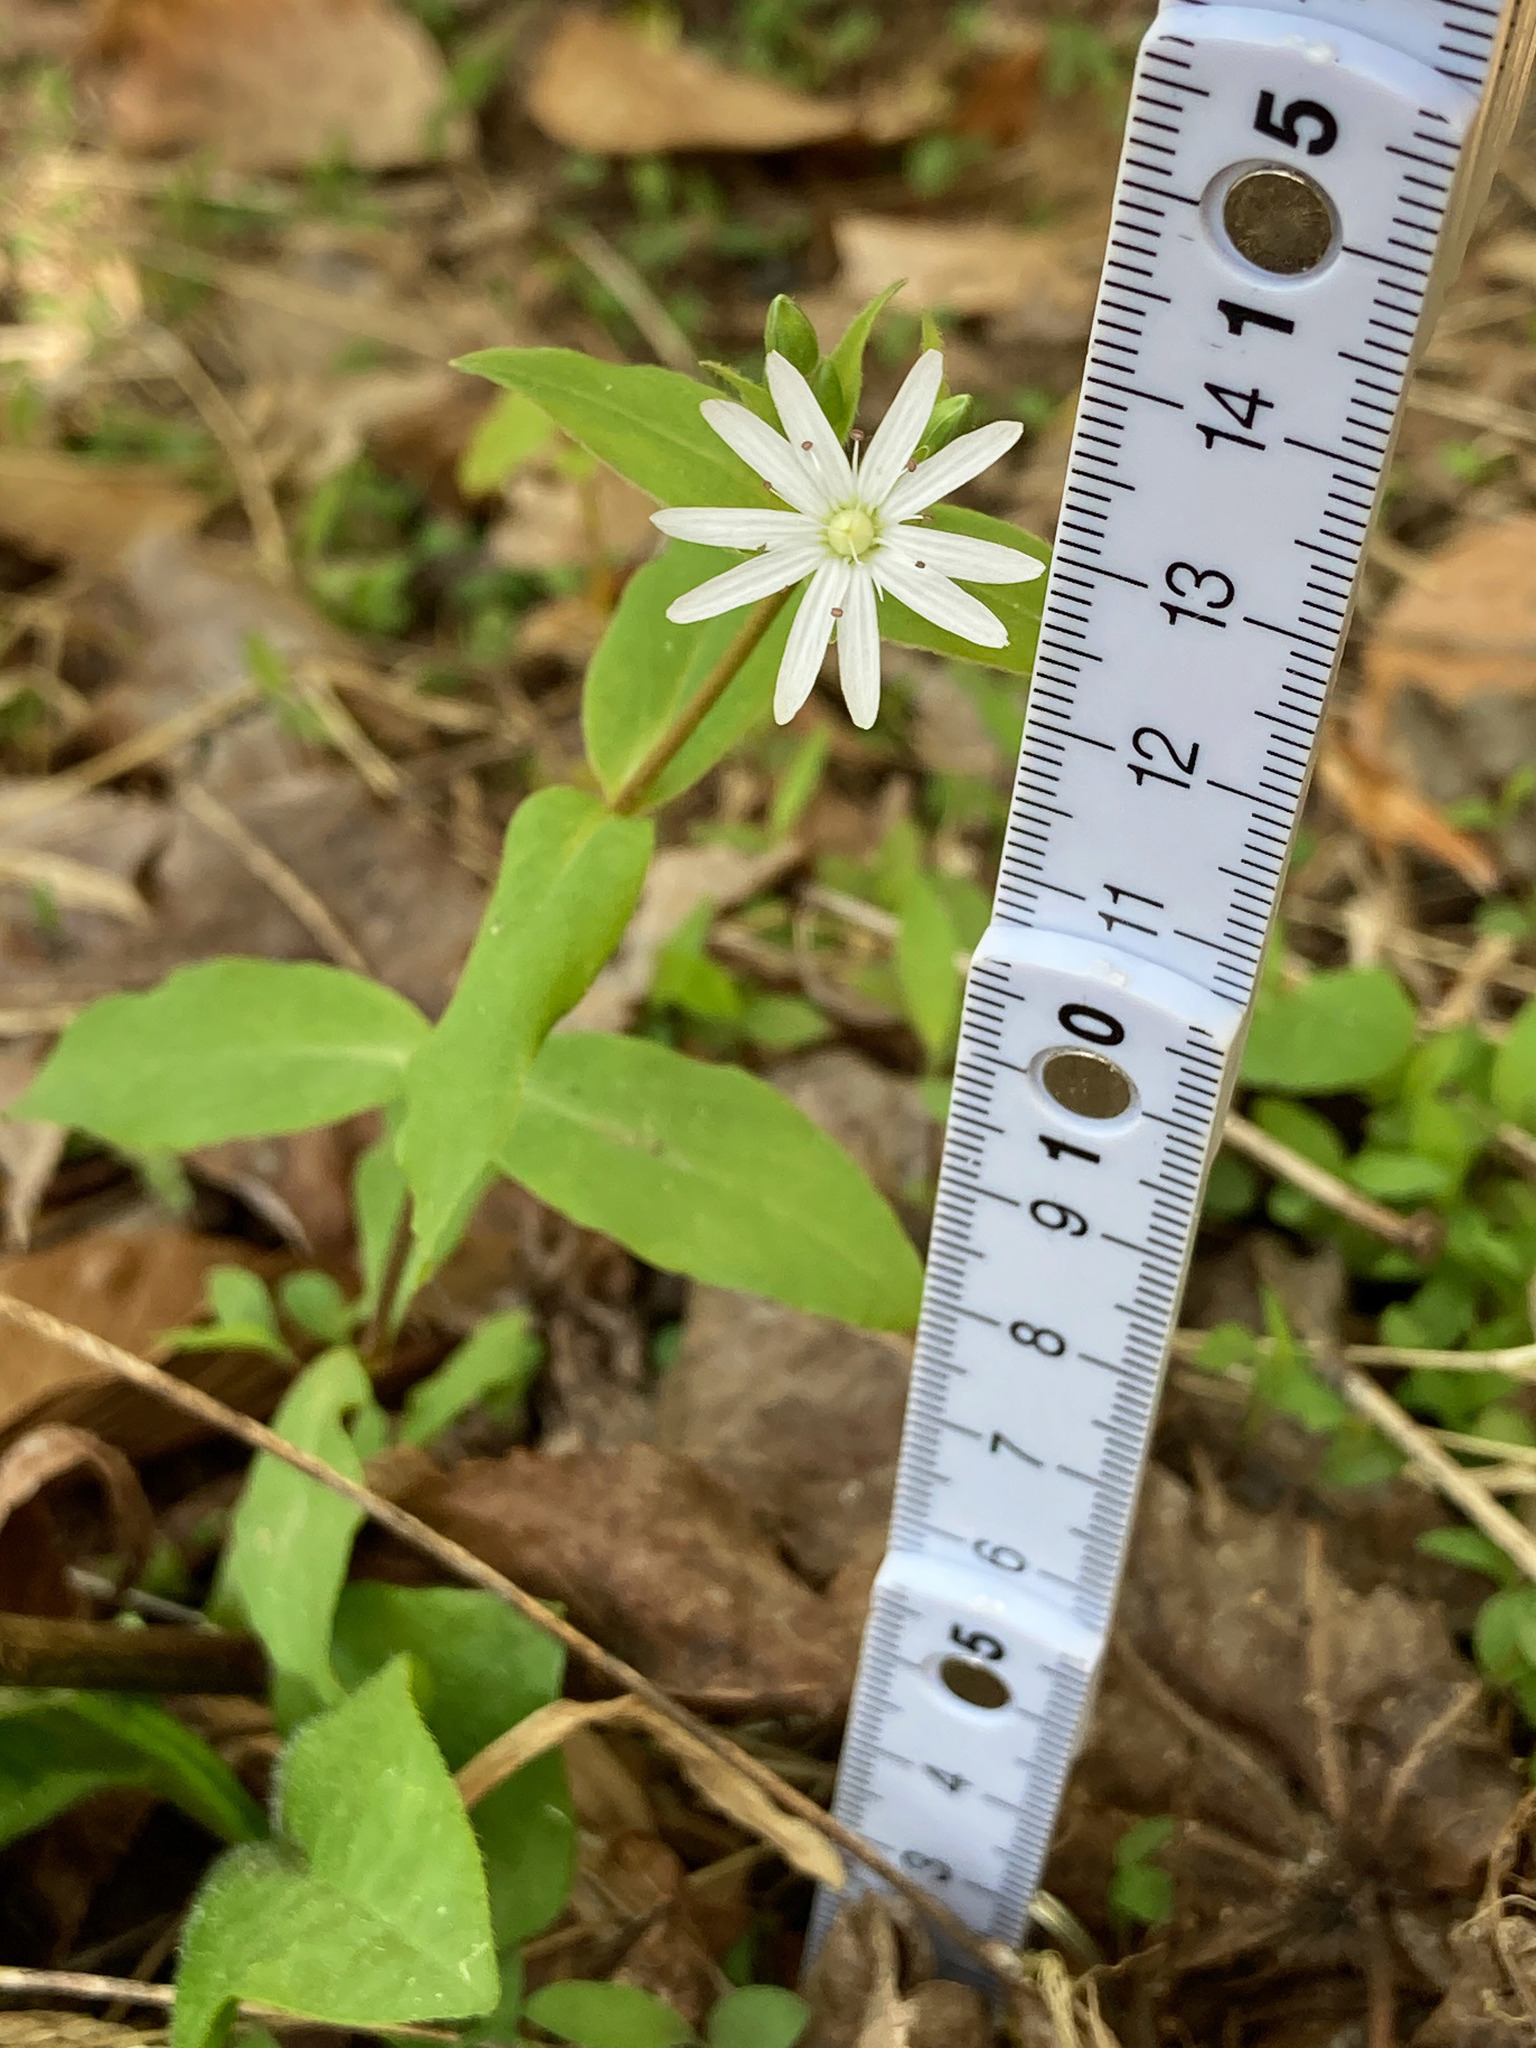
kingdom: Plantae
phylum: Tracheophyta
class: Magnoliopsida
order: Caryophyllales
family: Caryophyllaceae
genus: Stellaria
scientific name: Stellaria pubera
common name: Star chickweed
